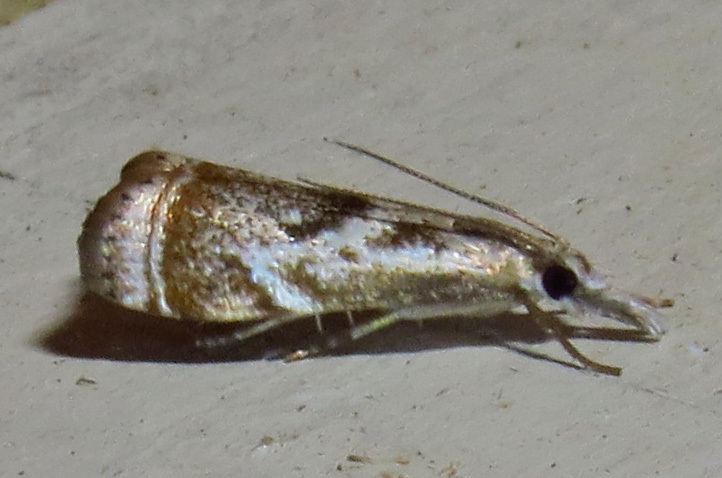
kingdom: Animalia
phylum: Arthropoda
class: Insecta
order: Lepidoptera
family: Crambidae
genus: Microcrambus
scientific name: Microcrambus elegans
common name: Elegant grass-veneer
